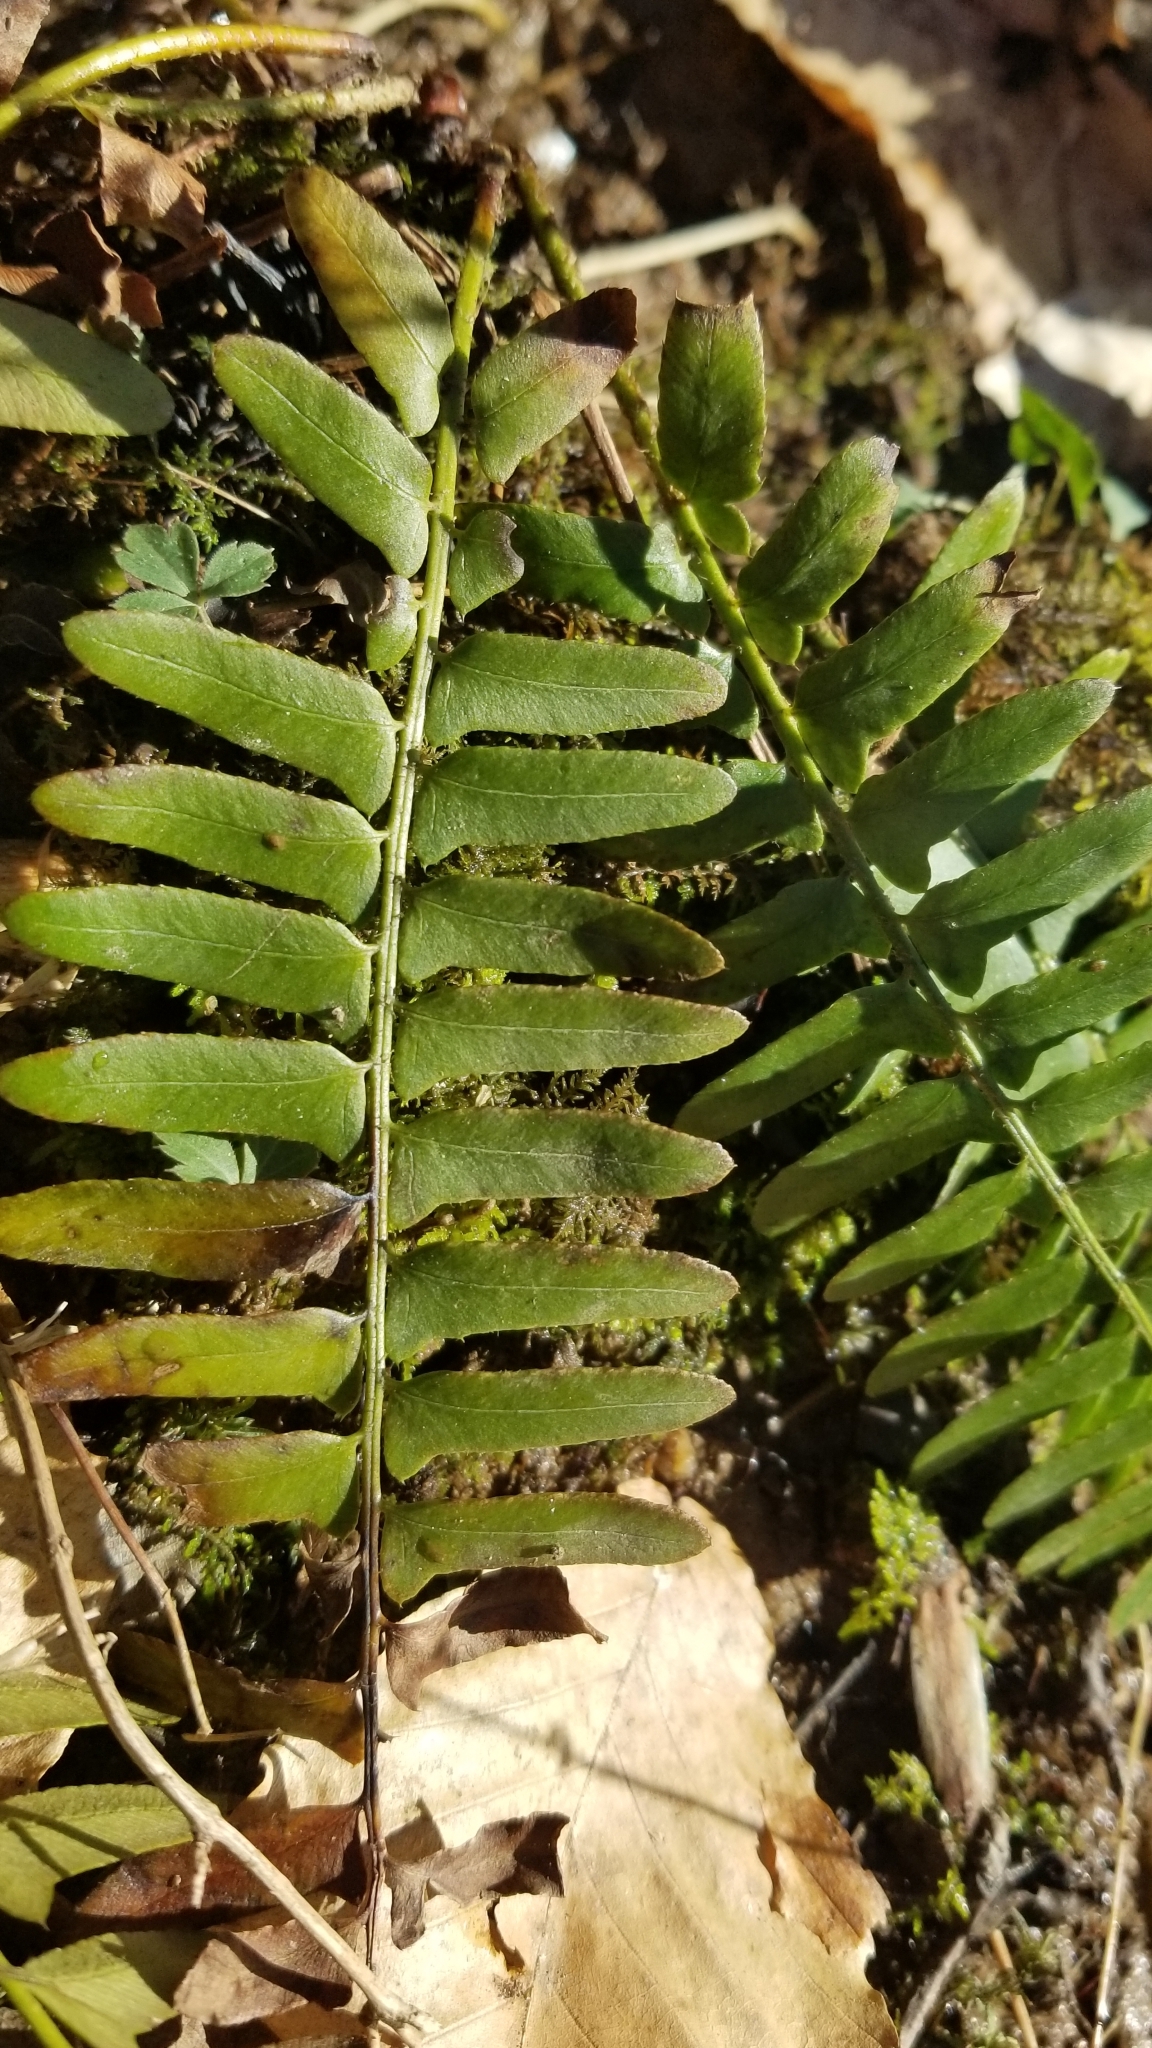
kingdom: Plantae
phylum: Tracheophyta
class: Polypodiopsida
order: Polypodiales
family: Dryopteridaceae
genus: Polystichum
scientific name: Polystichum acrostichoides
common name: Christmas fern
